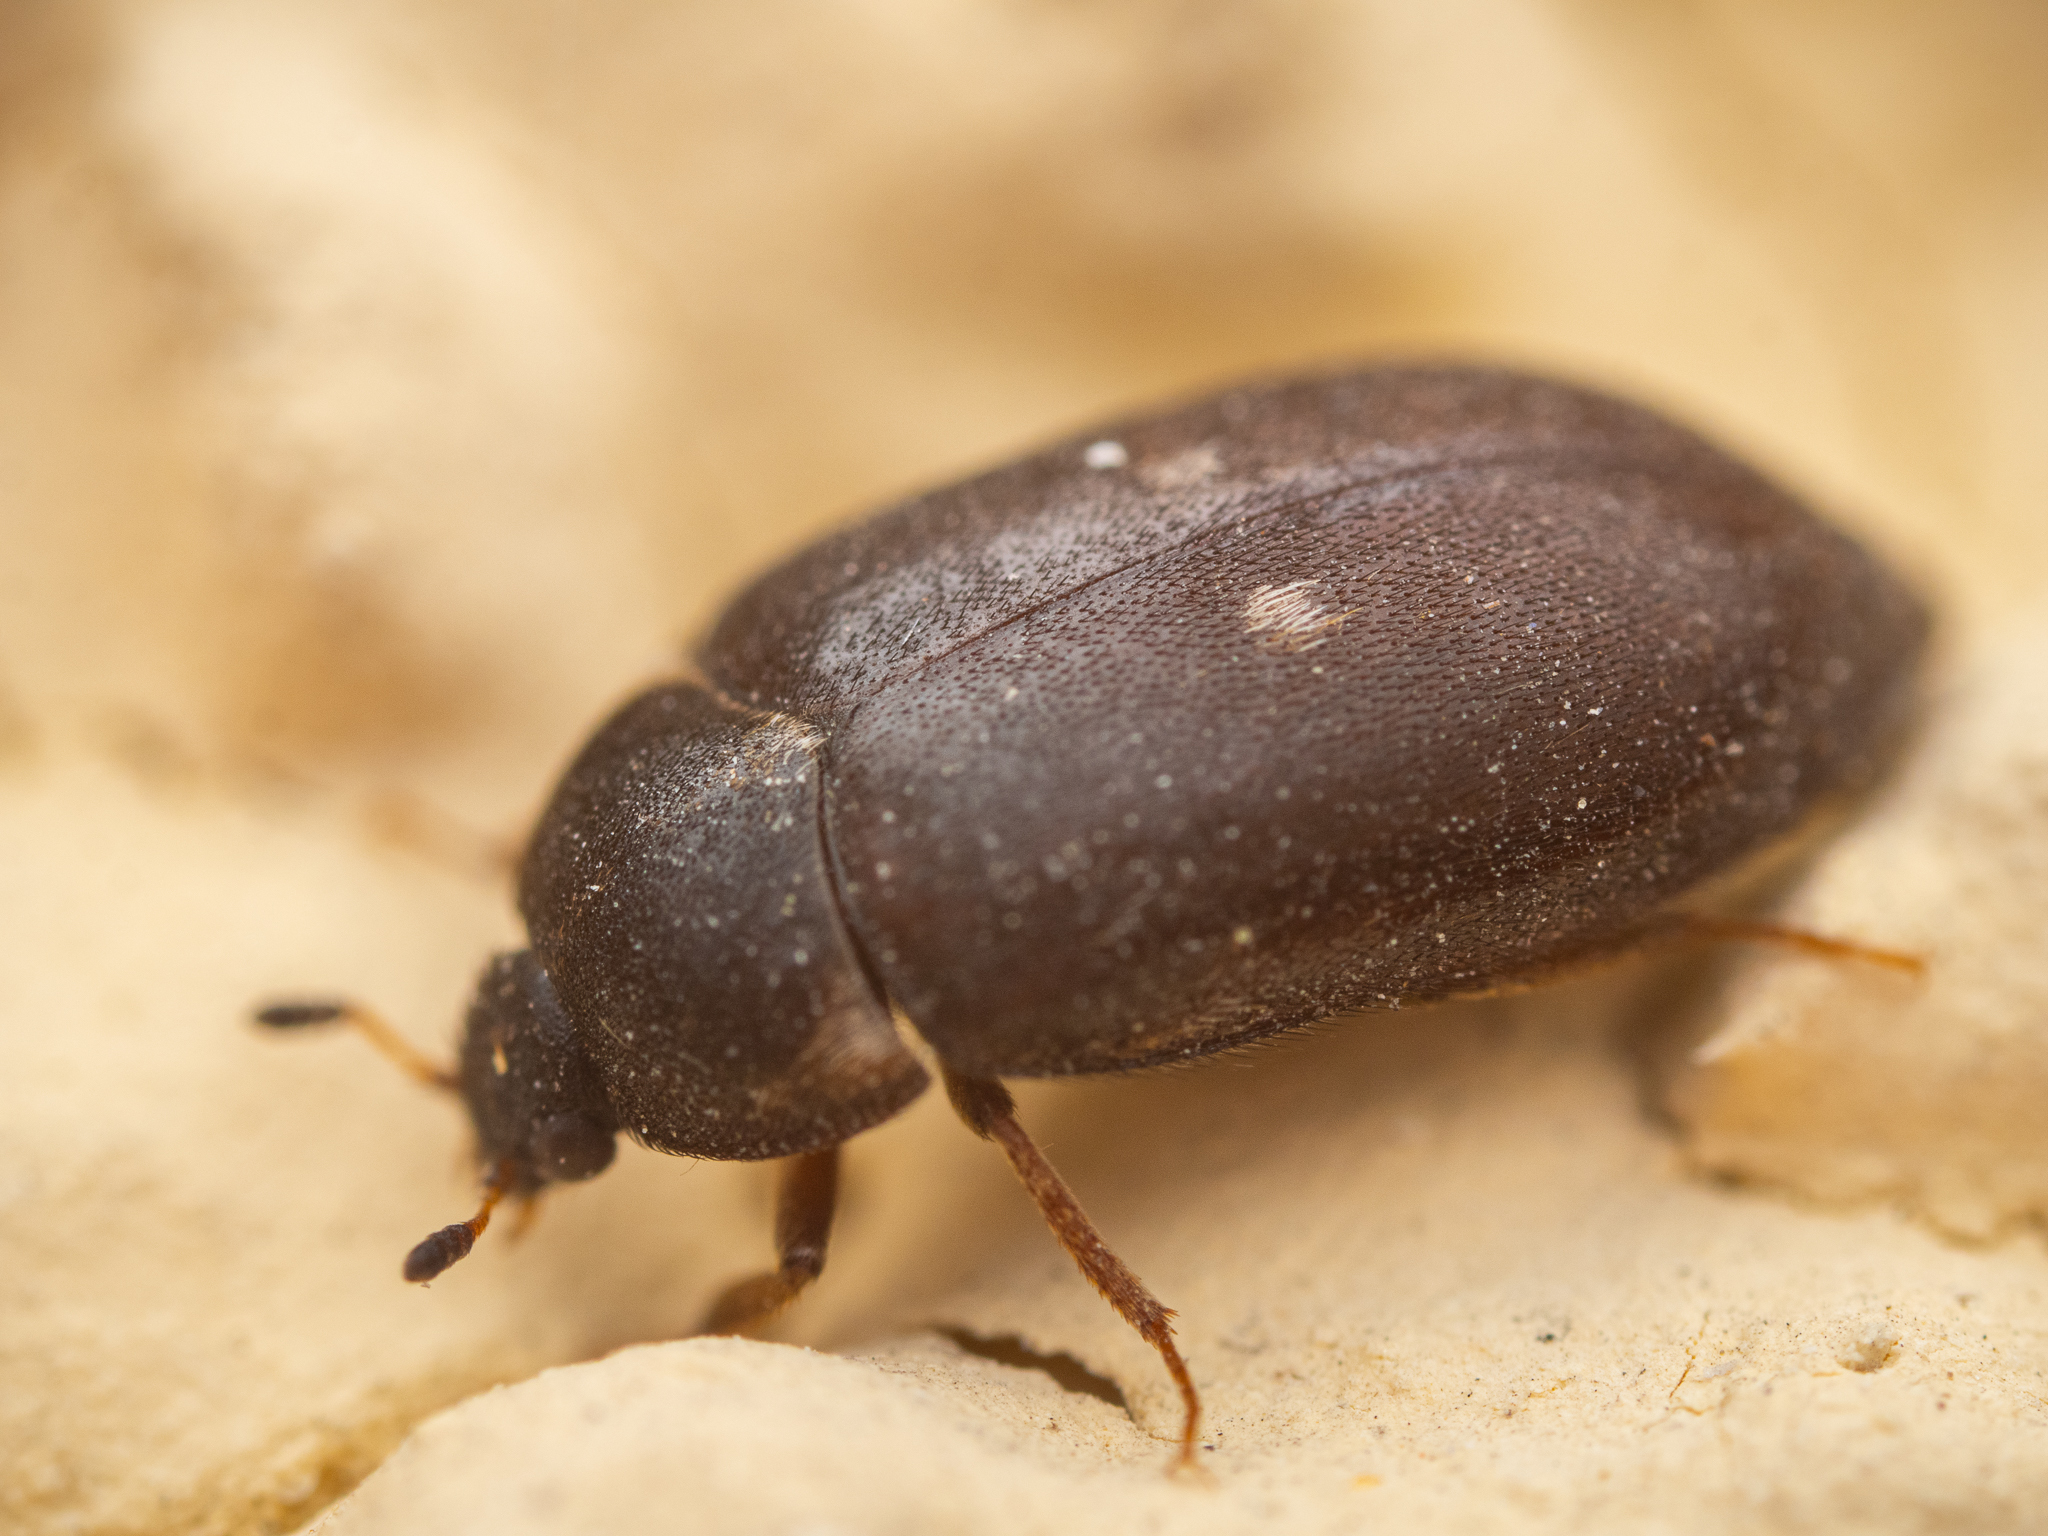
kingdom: Animalia
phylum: Arthropoda
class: Insecta
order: Coleoptera
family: Dermestidae
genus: Attagenus
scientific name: Attagenus pellio
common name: Two-spotted carpet beetle
